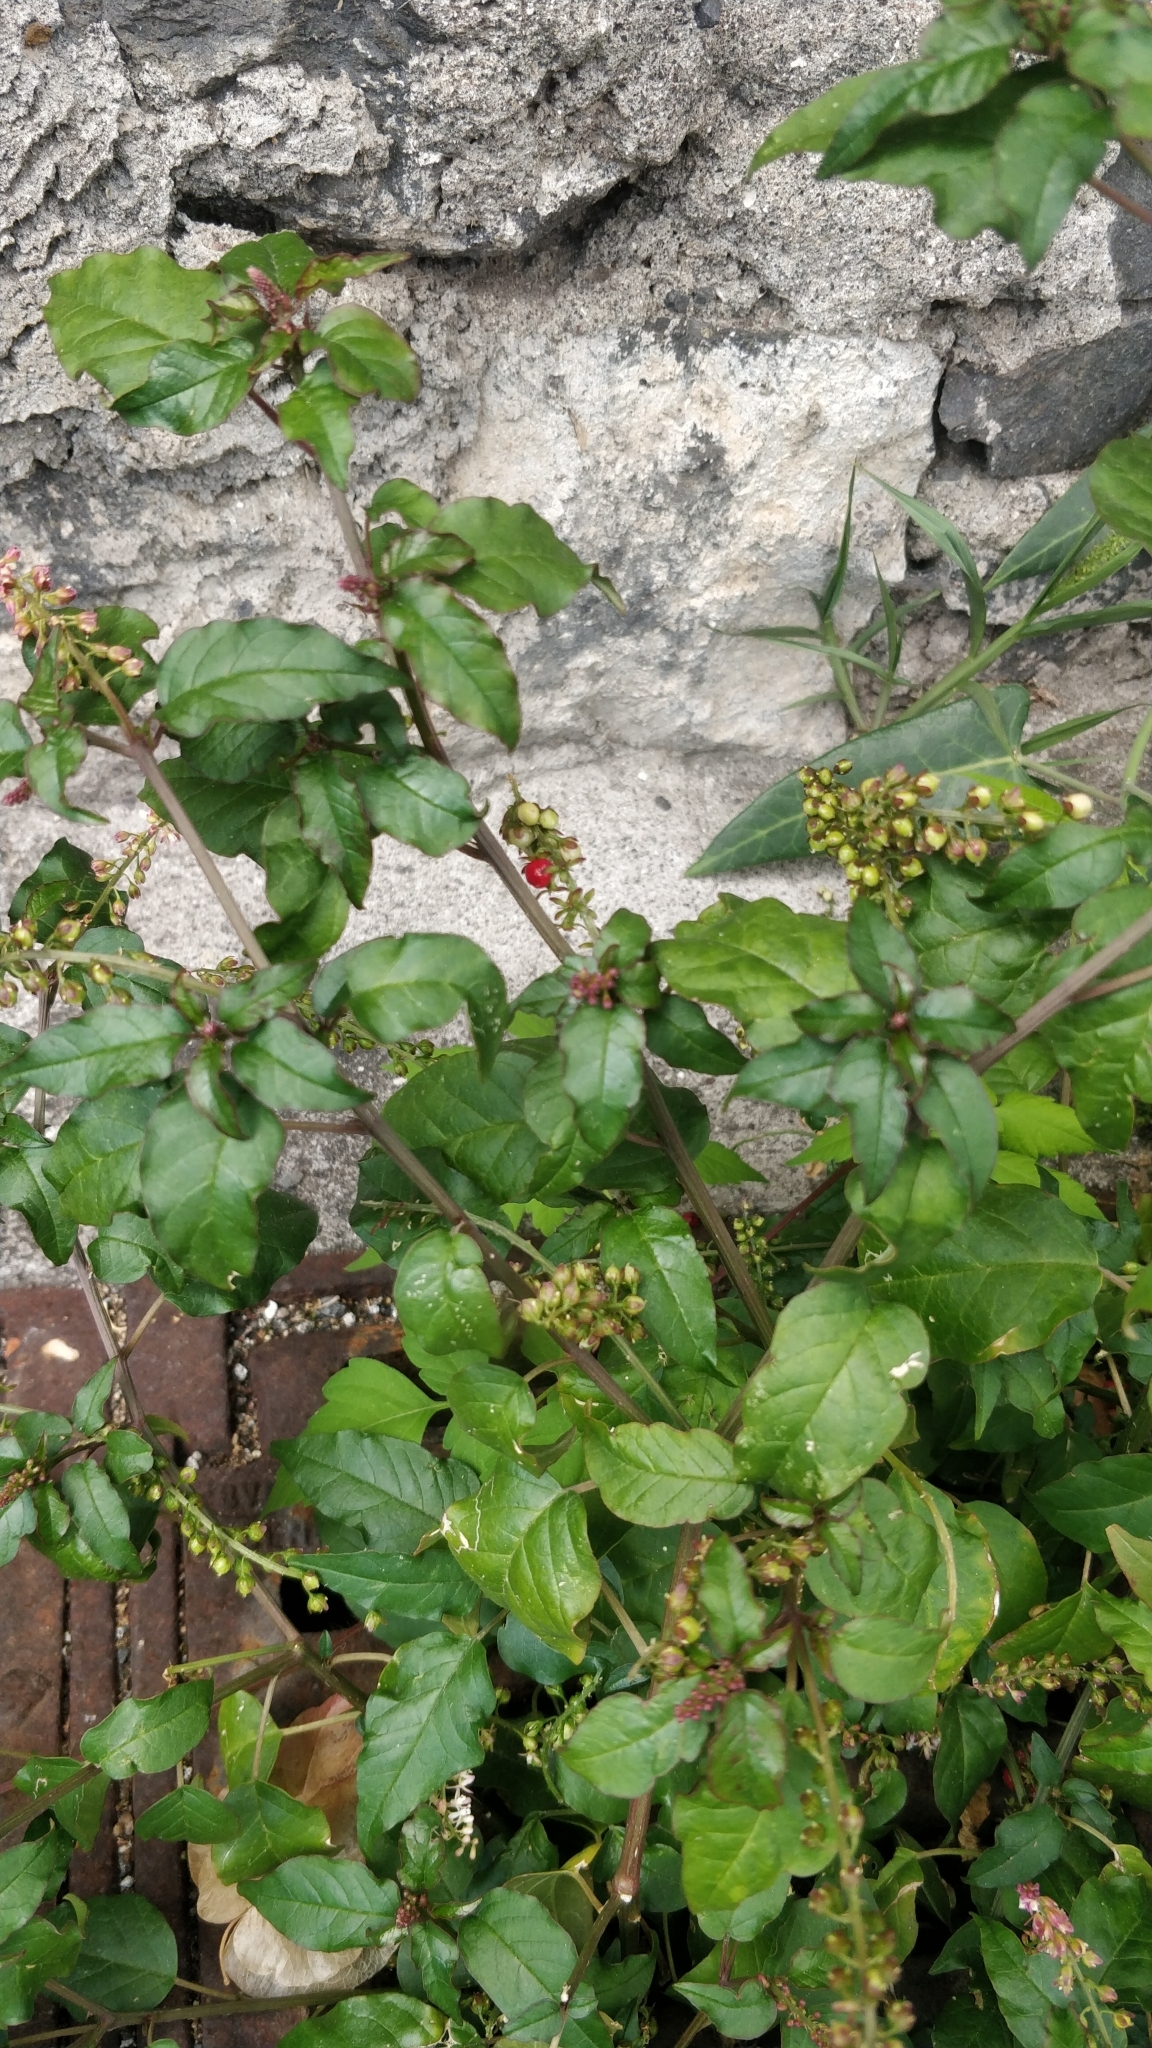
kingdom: Plantae
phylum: Tracheophyta
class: Magnoliopsida
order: Caryophyllales
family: Phytolaccaceae
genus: Rivina
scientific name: Rivina humilis
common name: Rougeplant
